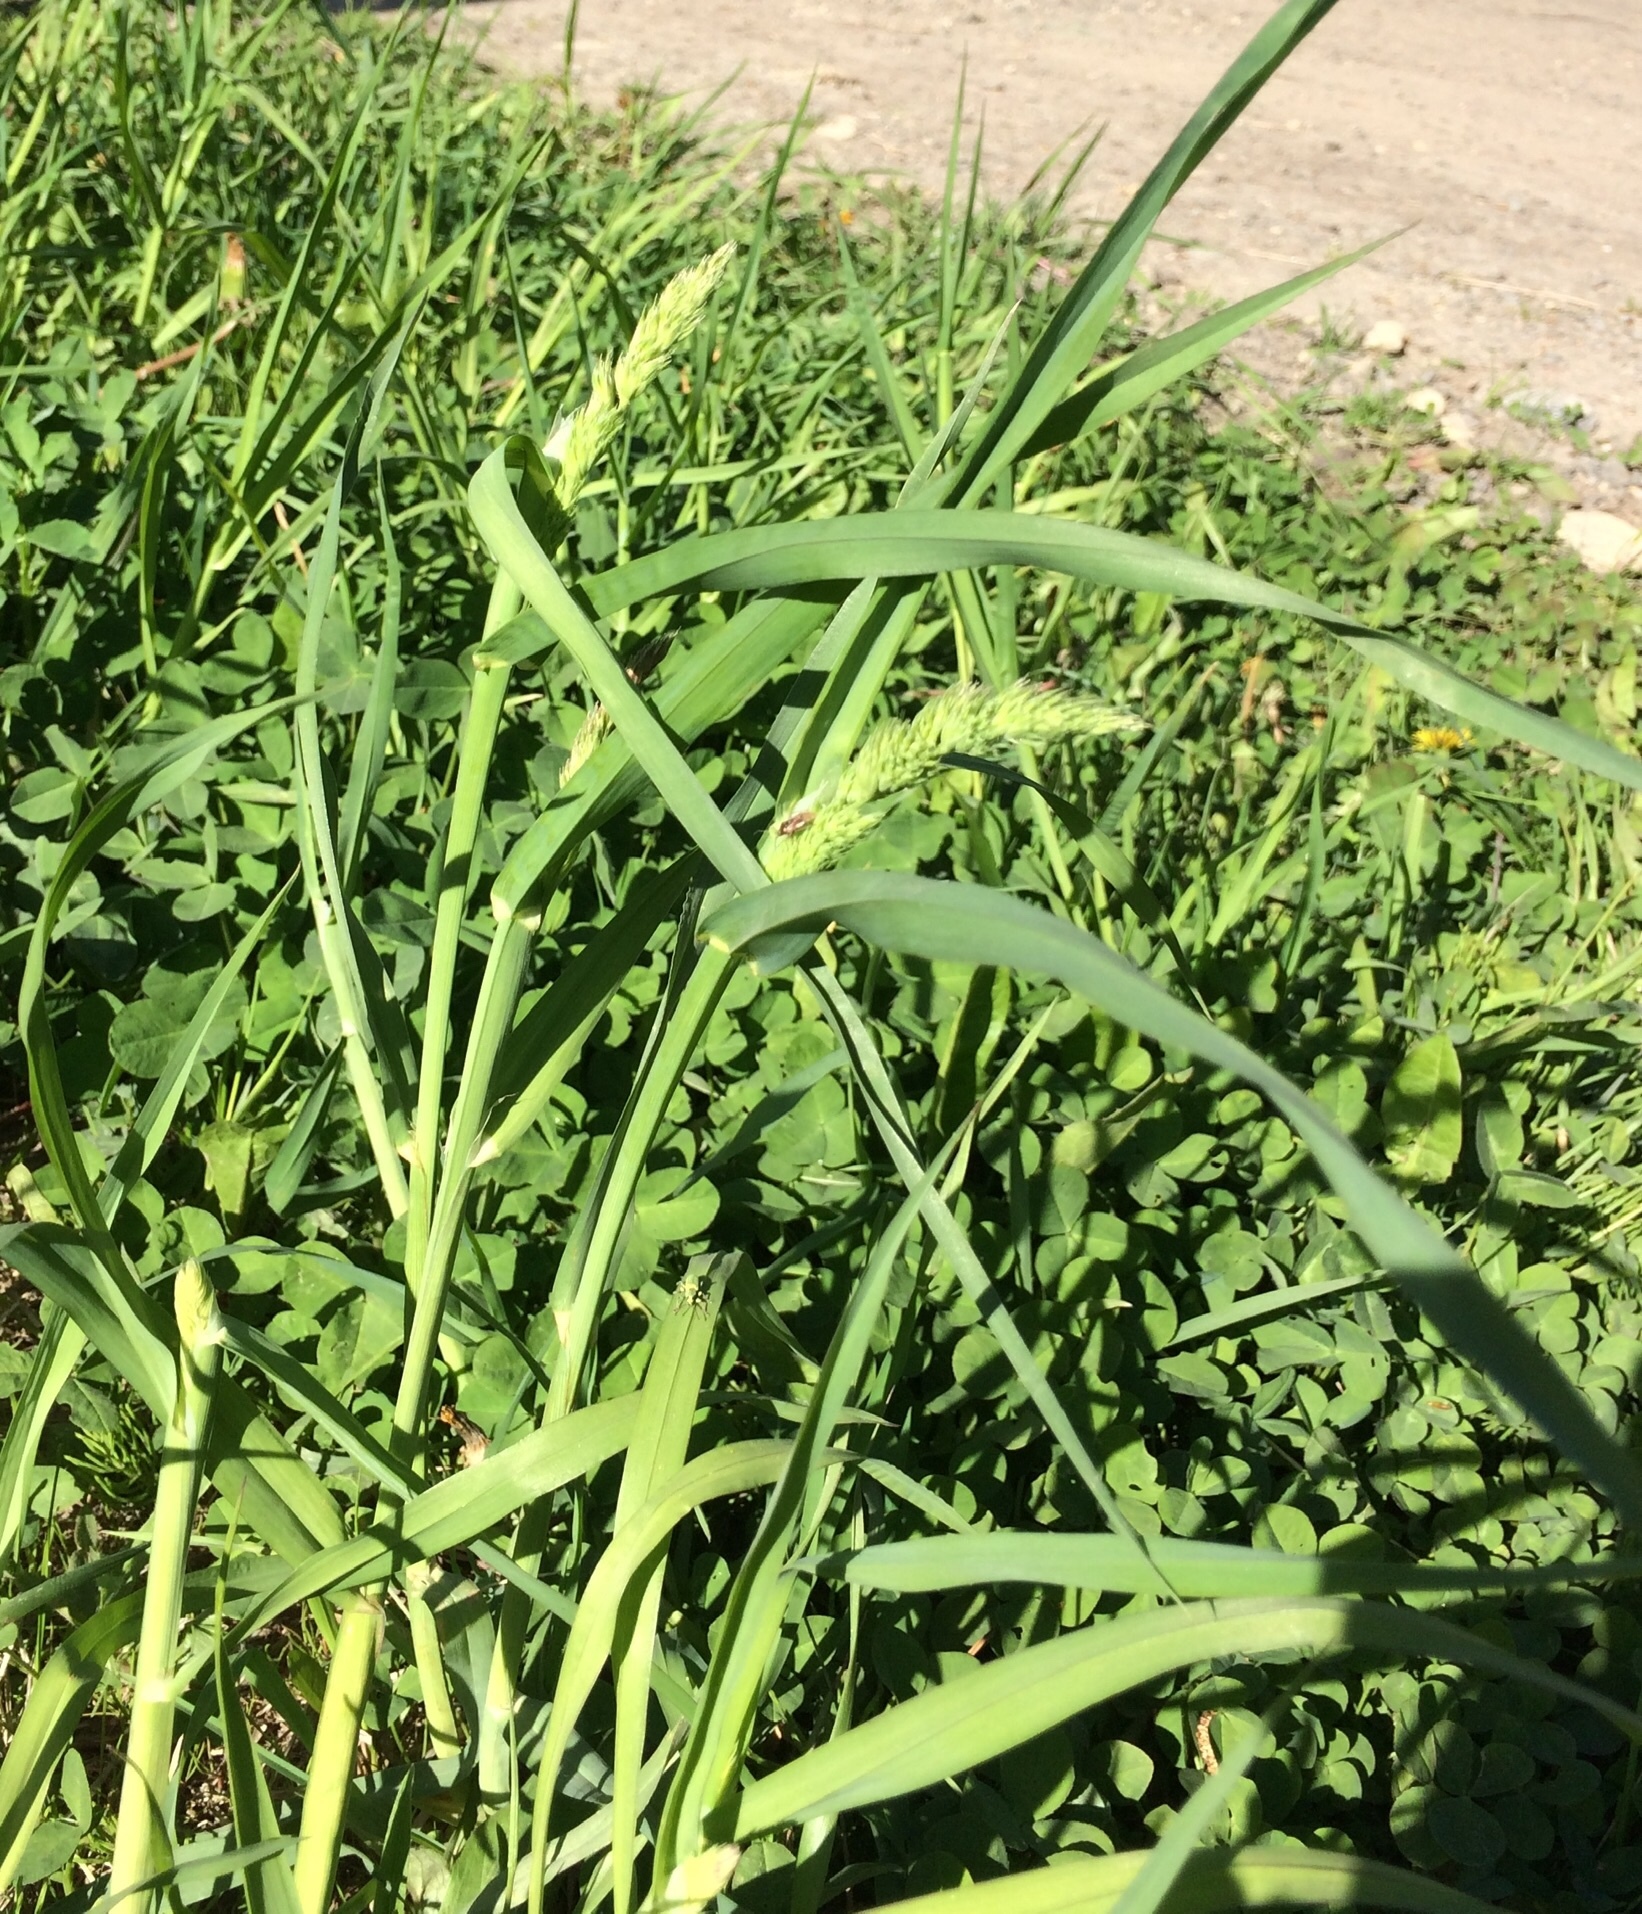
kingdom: Plantae
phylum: Tracheophyta
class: Liliopsida
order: Poales
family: Poaceae
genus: Dactylis
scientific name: Dactylis glomerata
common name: Orchardgrass
